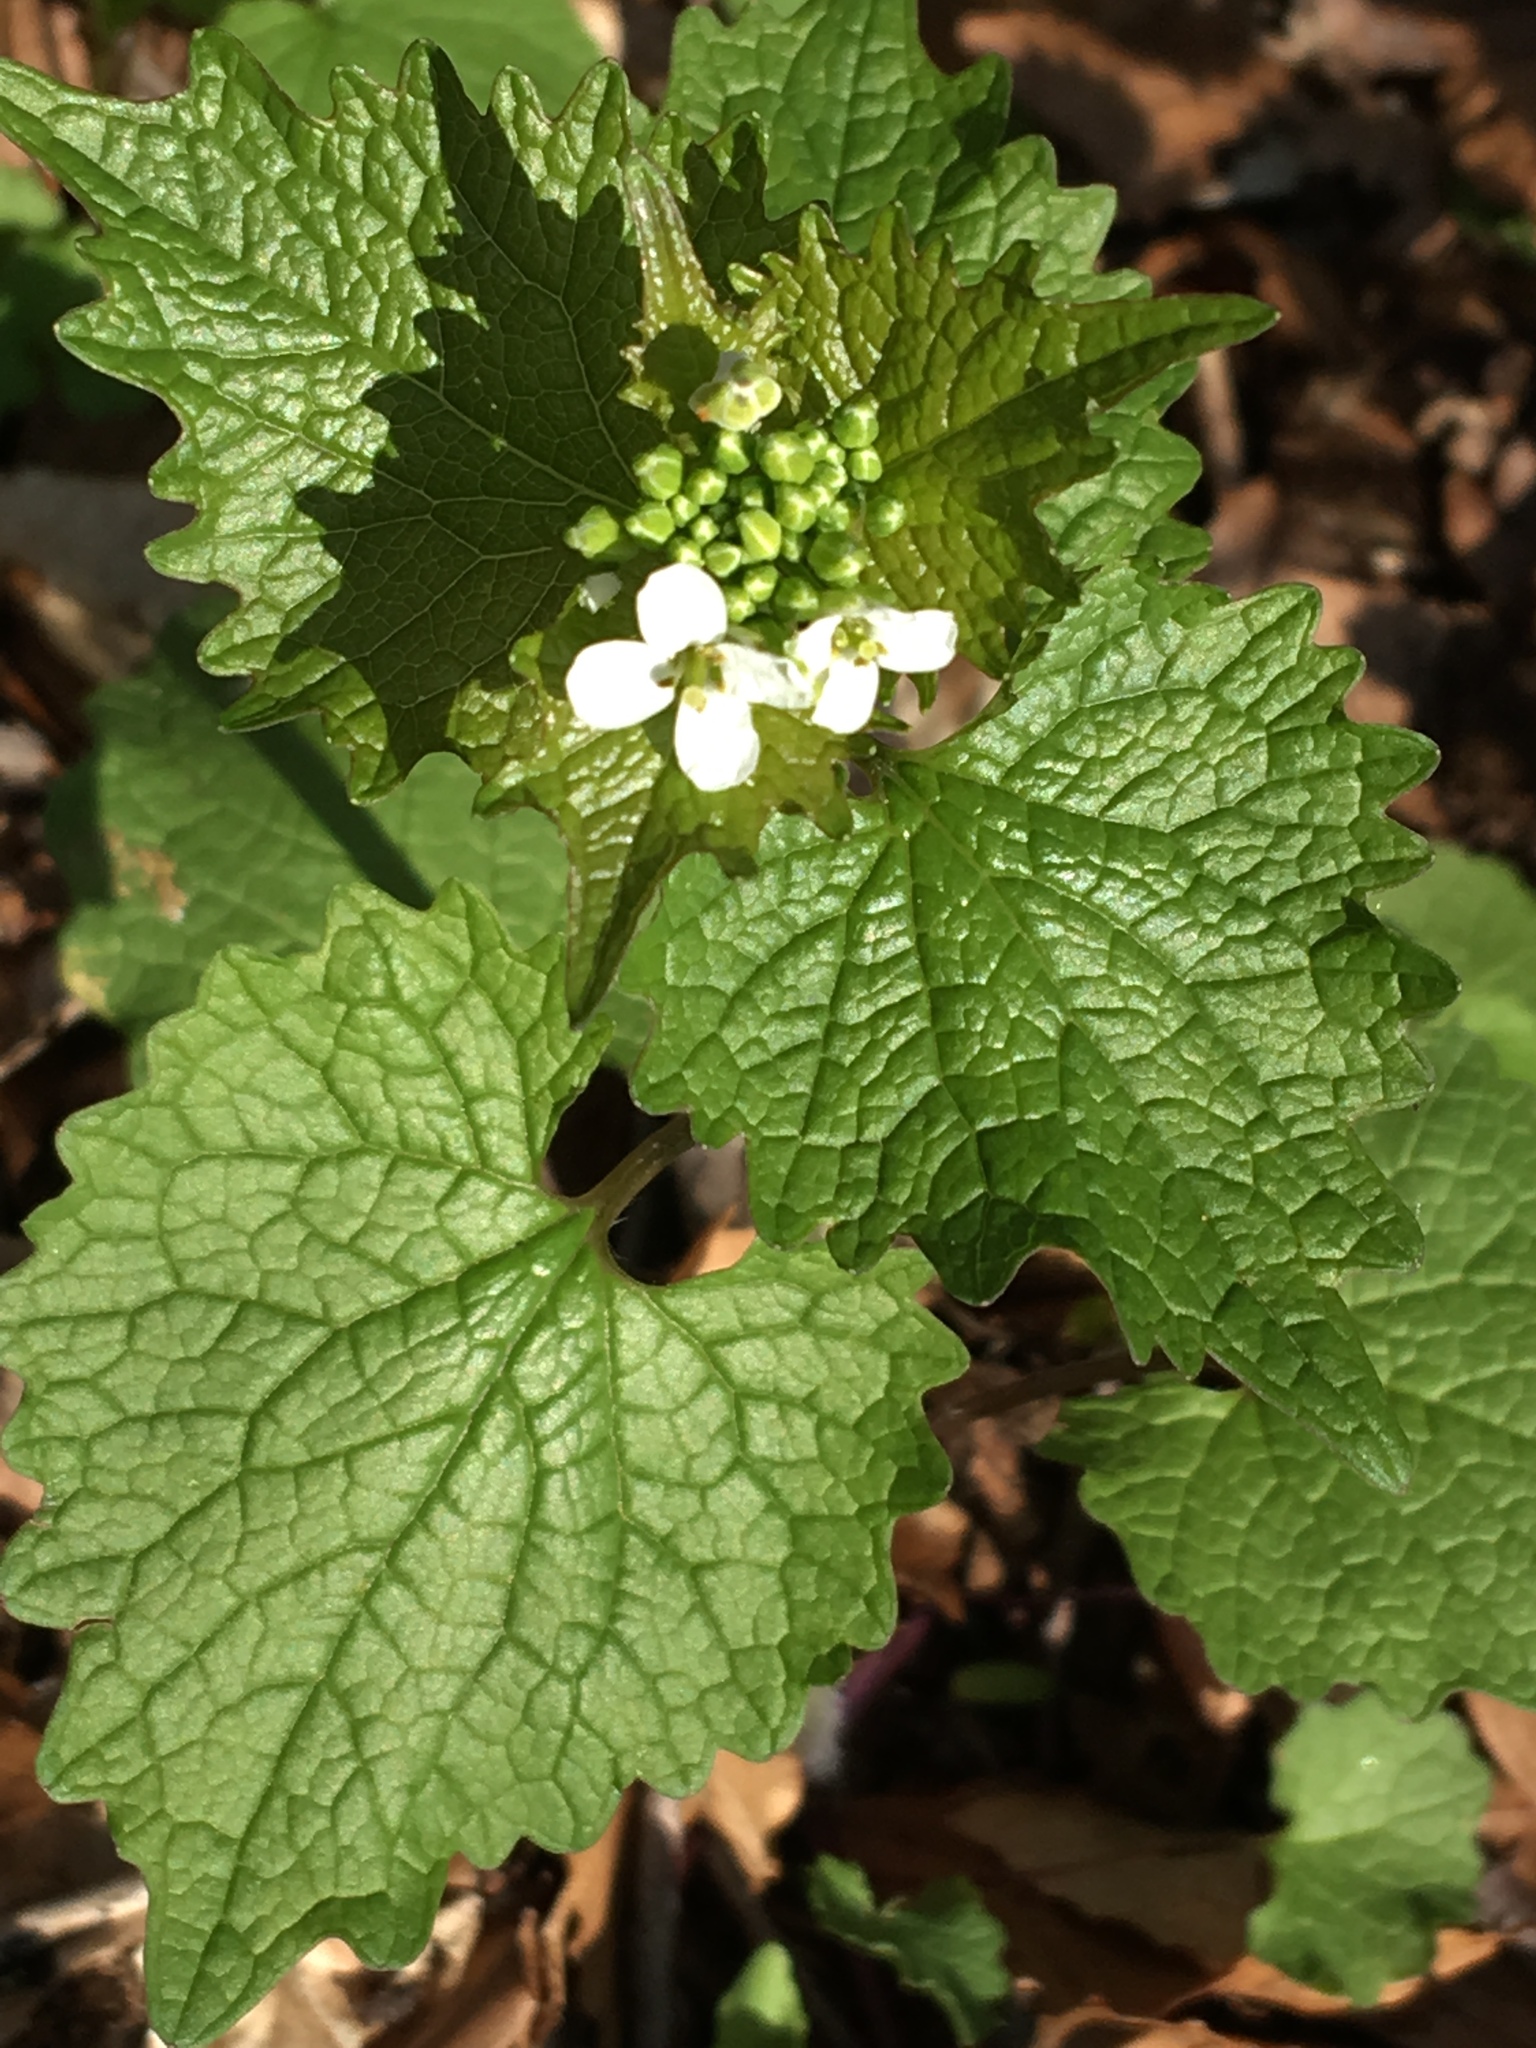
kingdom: Plantae
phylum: Tracheophyta
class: Magnoliopsida
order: Brassicales
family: Brassicaceae
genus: Alliaria
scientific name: Alliaria petiolata
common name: Garlic mustard
